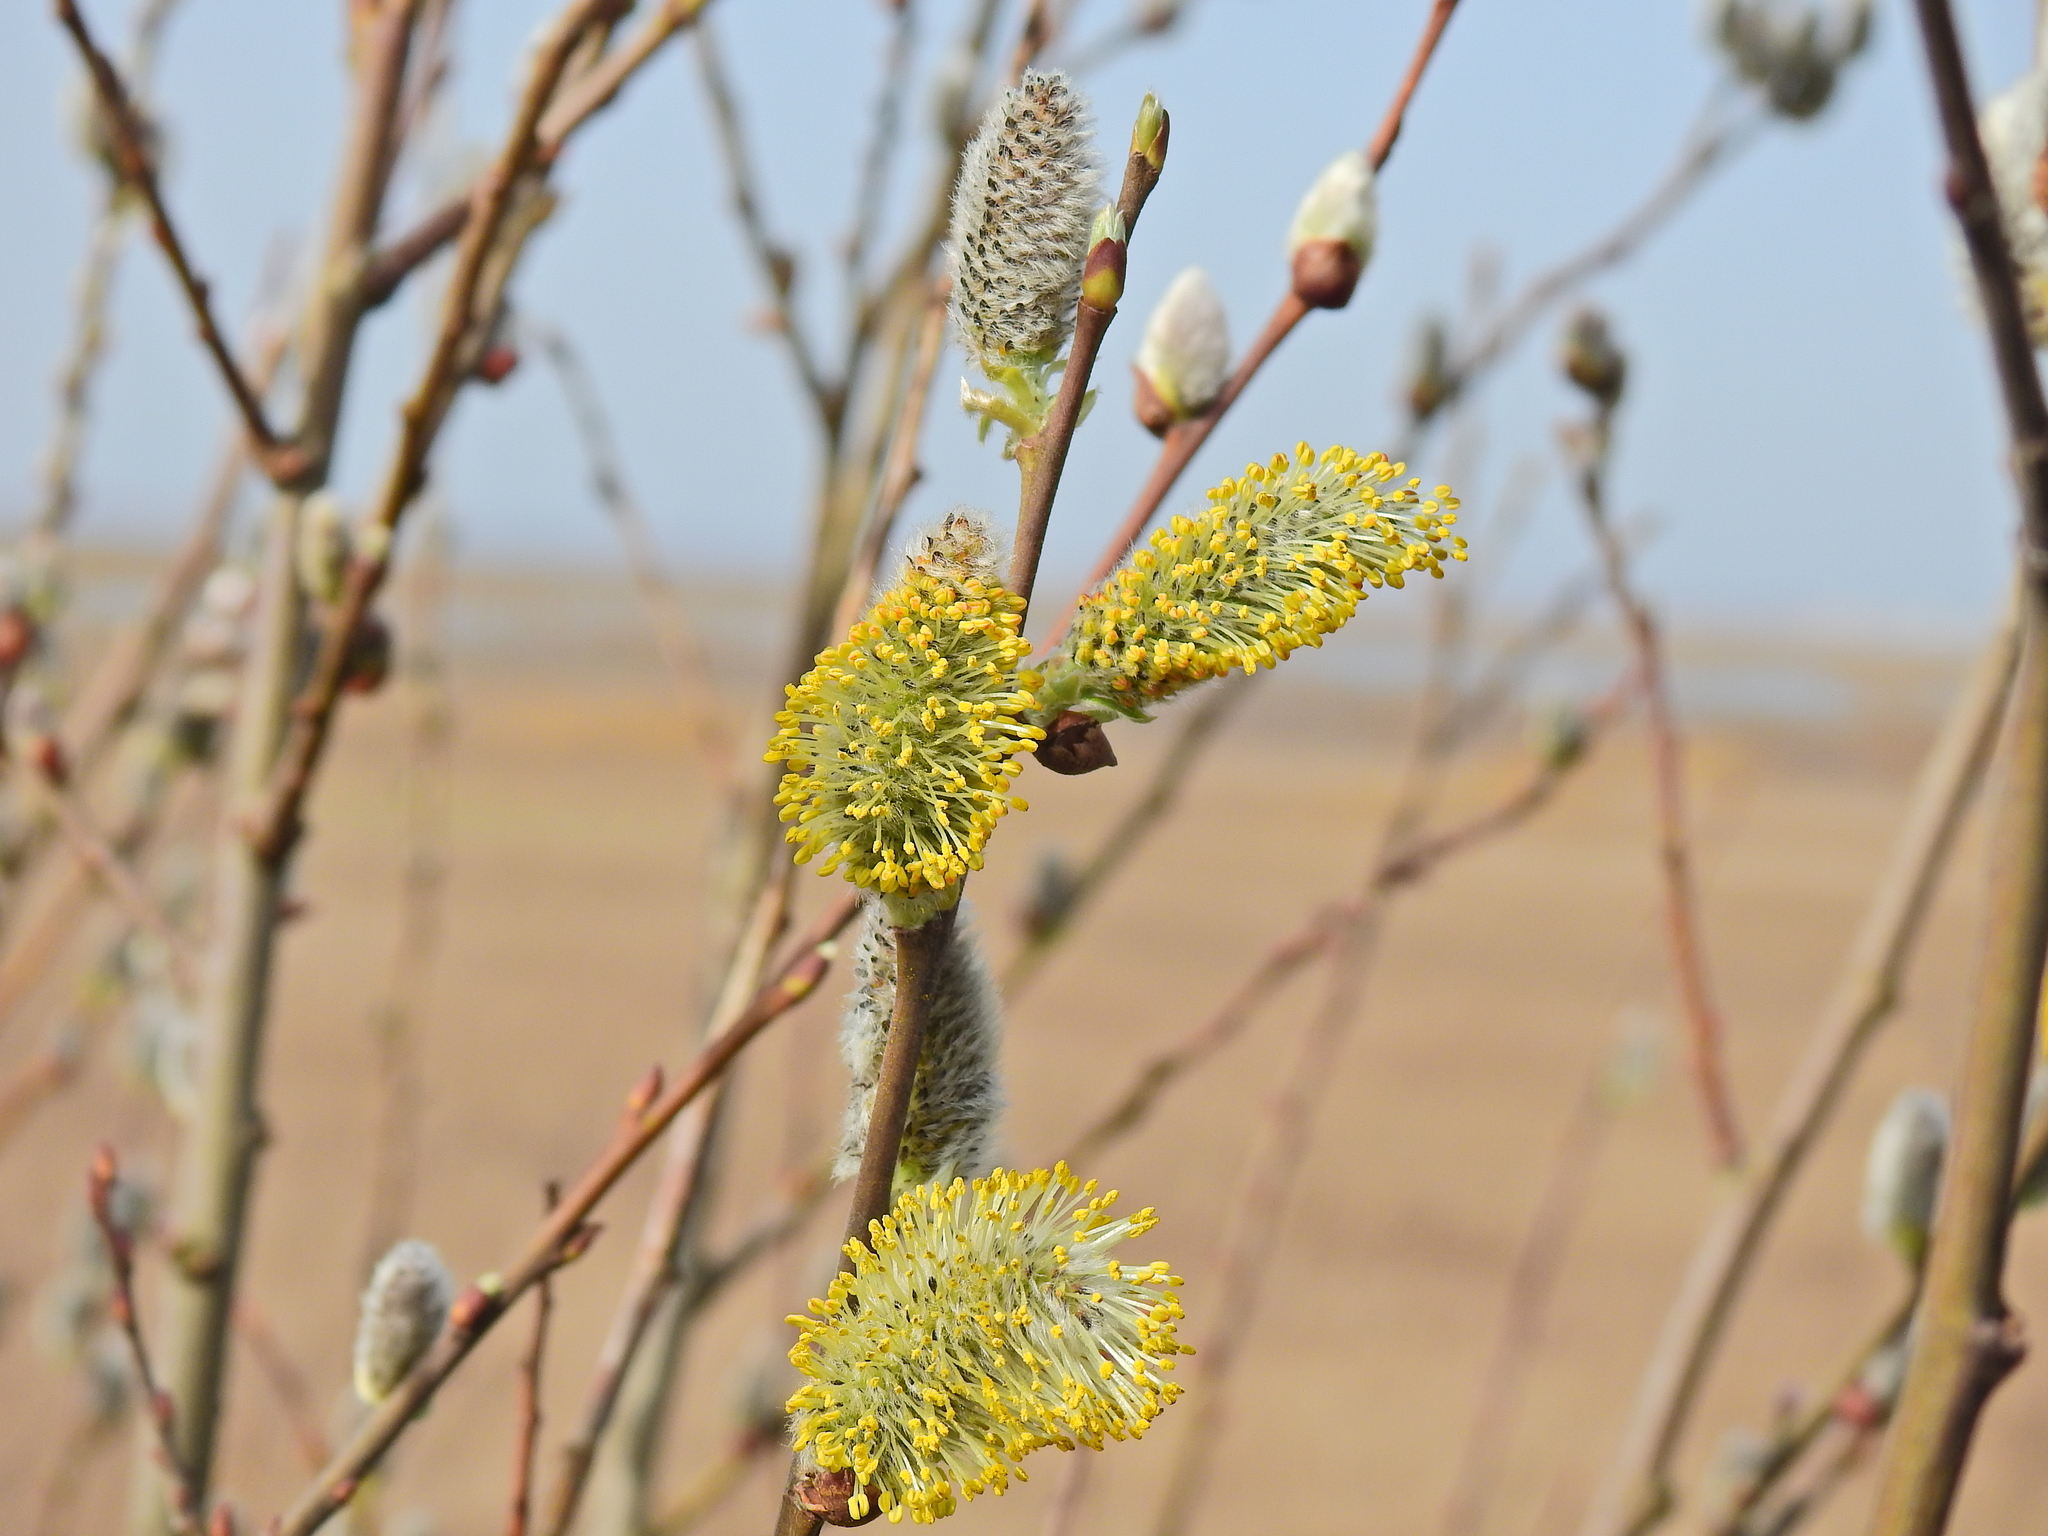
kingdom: Plantae
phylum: Tracheophyta
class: Magnoliopsida
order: Malpighiales
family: Salicaceae
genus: Salix
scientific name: Salix caprea
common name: Goat willow
